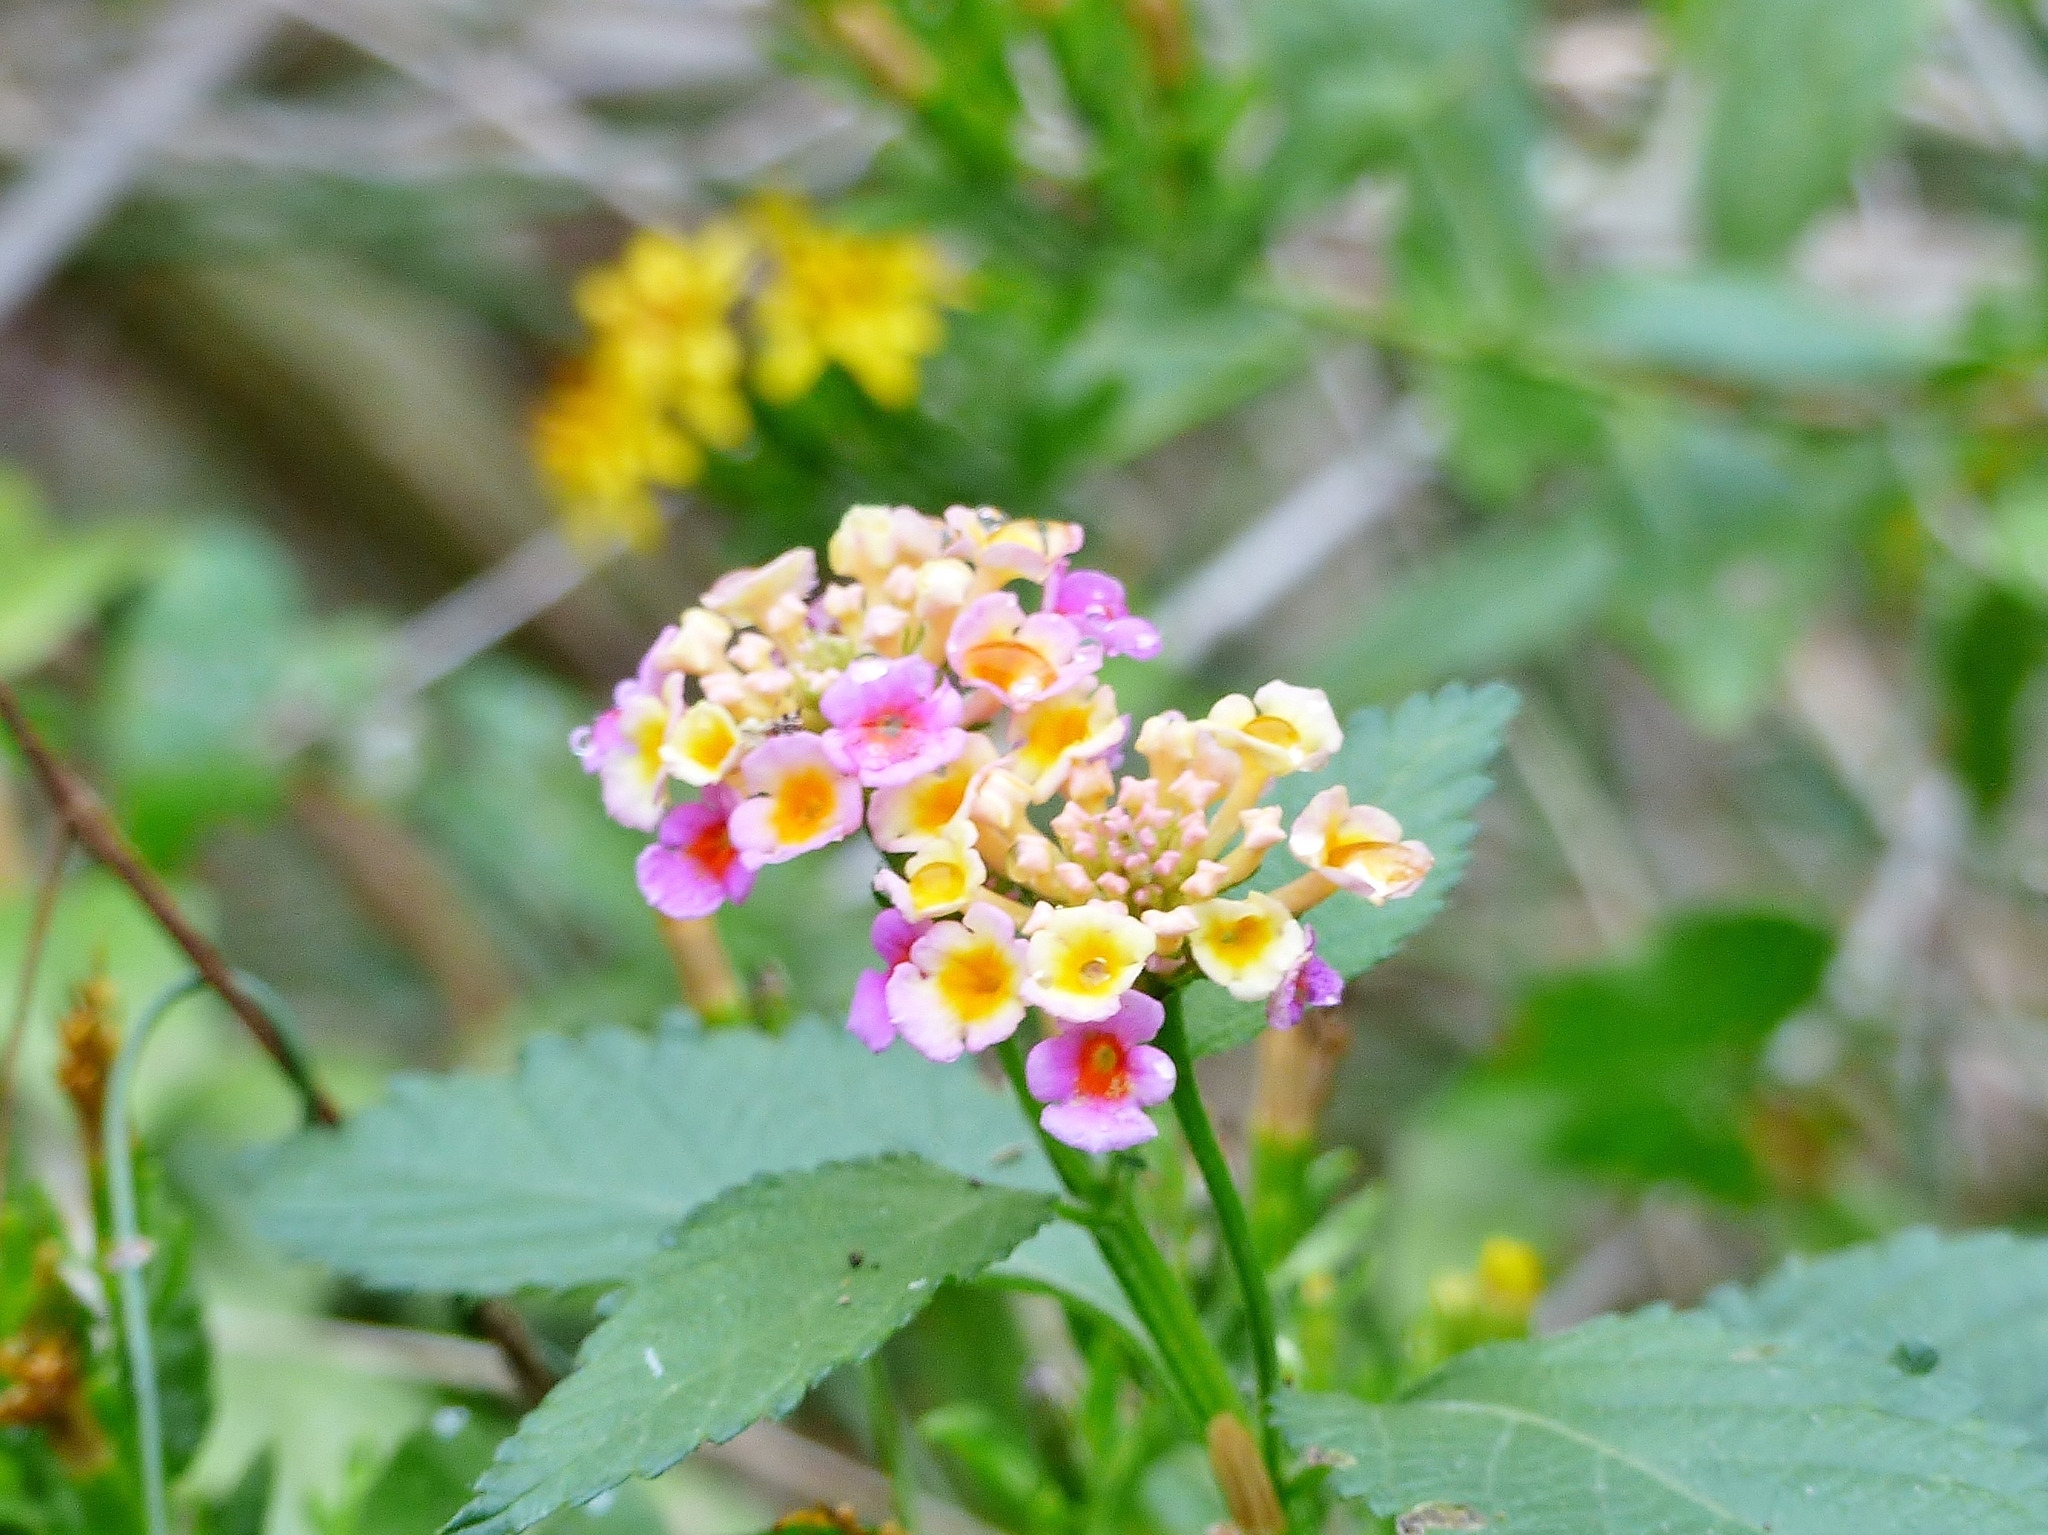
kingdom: Plantae
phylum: Tracheophyta
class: Magnoliopsida
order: Lamiales
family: Verbenaceae
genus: Lantana
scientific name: Lantana strigocamara
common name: Lantana
